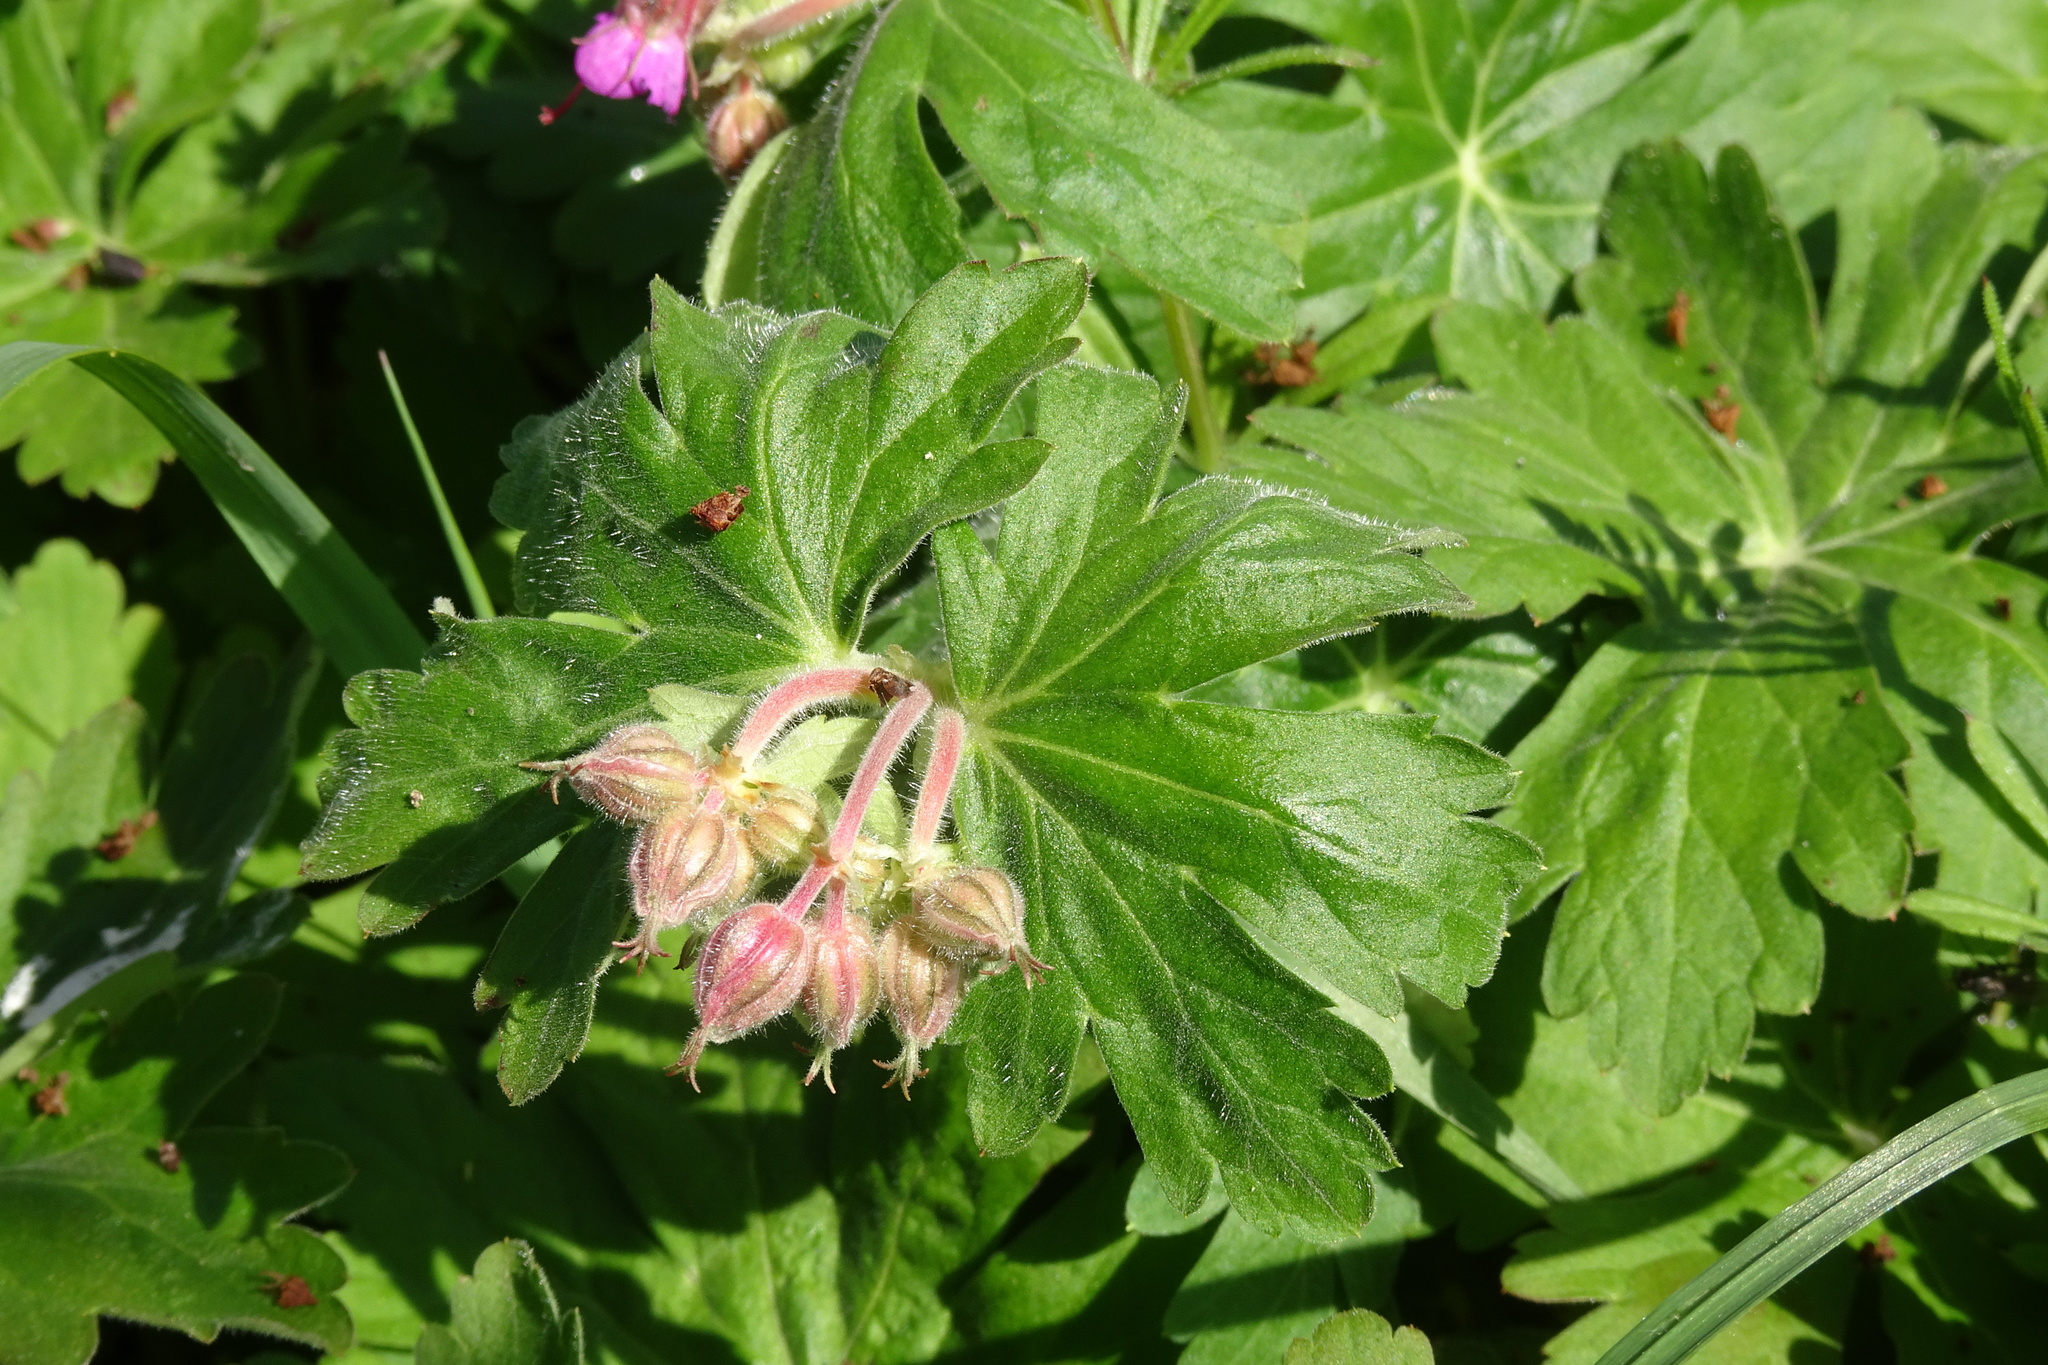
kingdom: Plantae
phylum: Tracheophyta
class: Magnoliopsida
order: Geraniales
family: Geraniaceae
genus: Geranium
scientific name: Geranium macrorrhizum
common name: Rock crane's-bill
